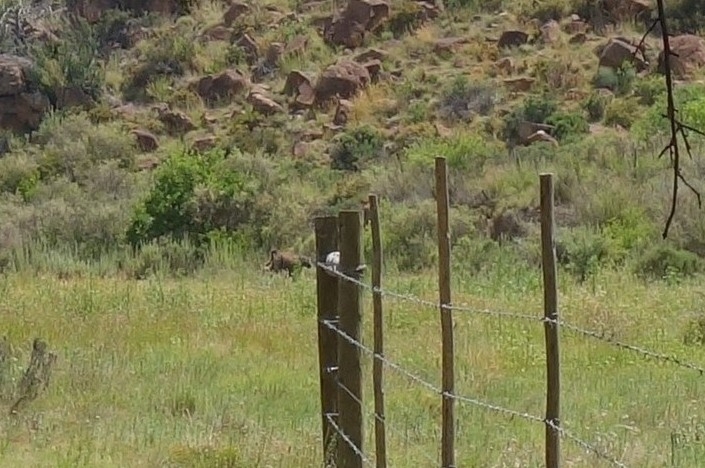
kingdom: Animalia
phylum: Chordata
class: Mammalia
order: Primates
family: Cercopithecidae
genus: Papio
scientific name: Papio ursinus
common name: Chacma baboon
